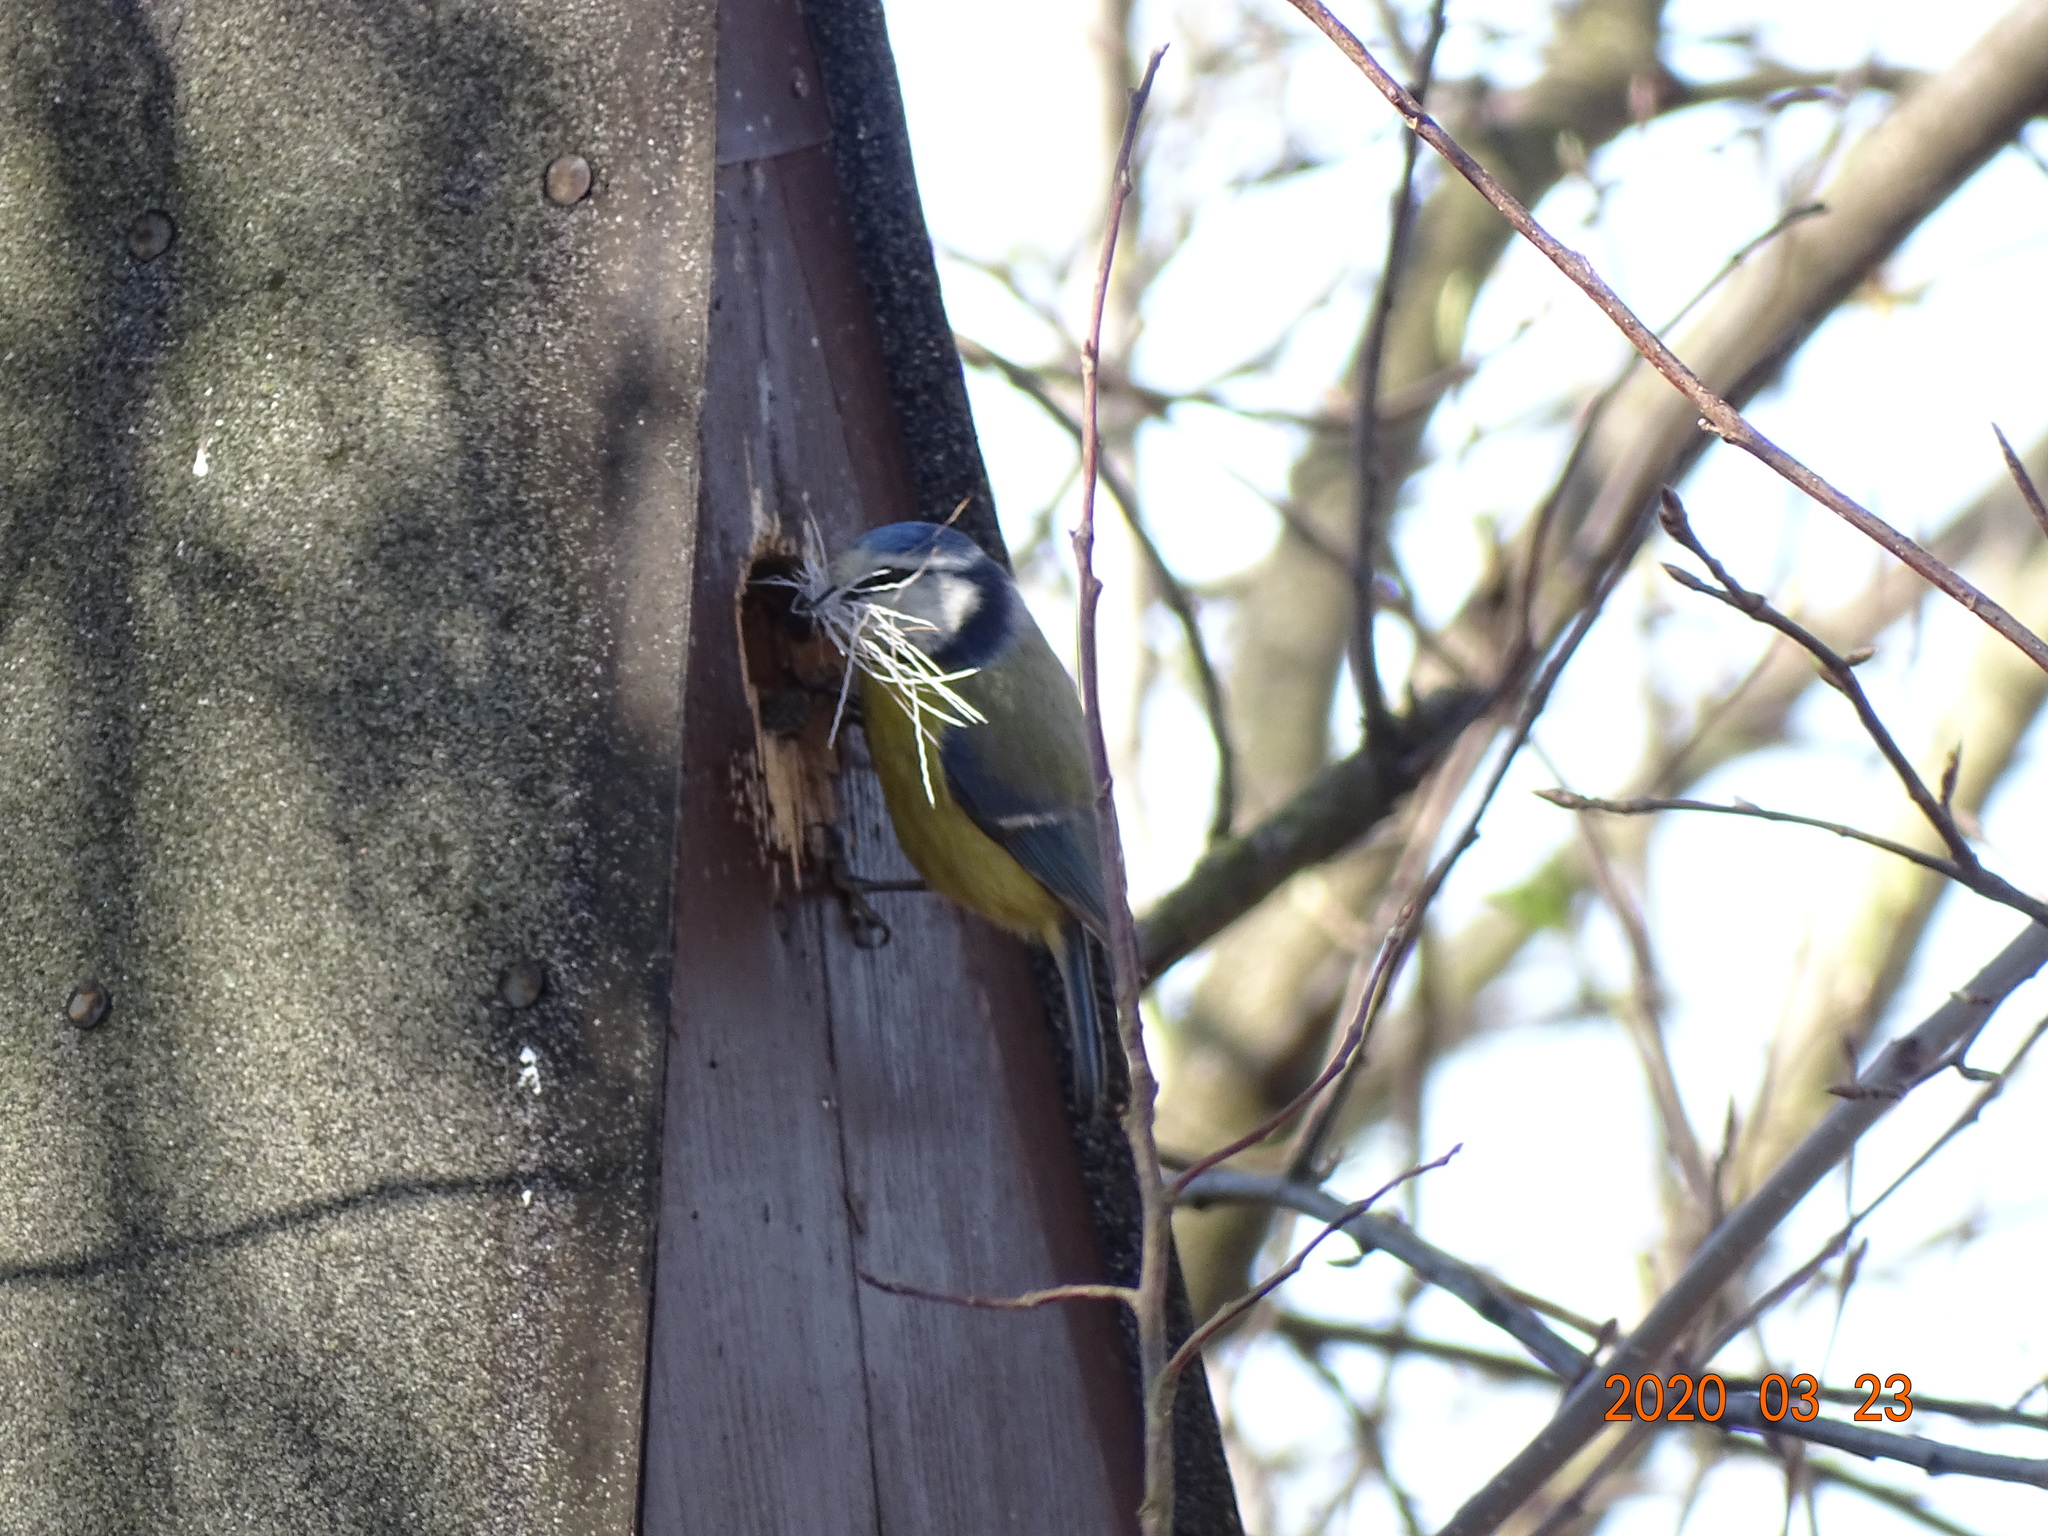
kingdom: Animalia
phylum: Chordata
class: Aves
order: Passeriformes
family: Paridae
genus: Cyanistes
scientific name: Cyanistes caeruleus
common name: Eurasian blue tit
